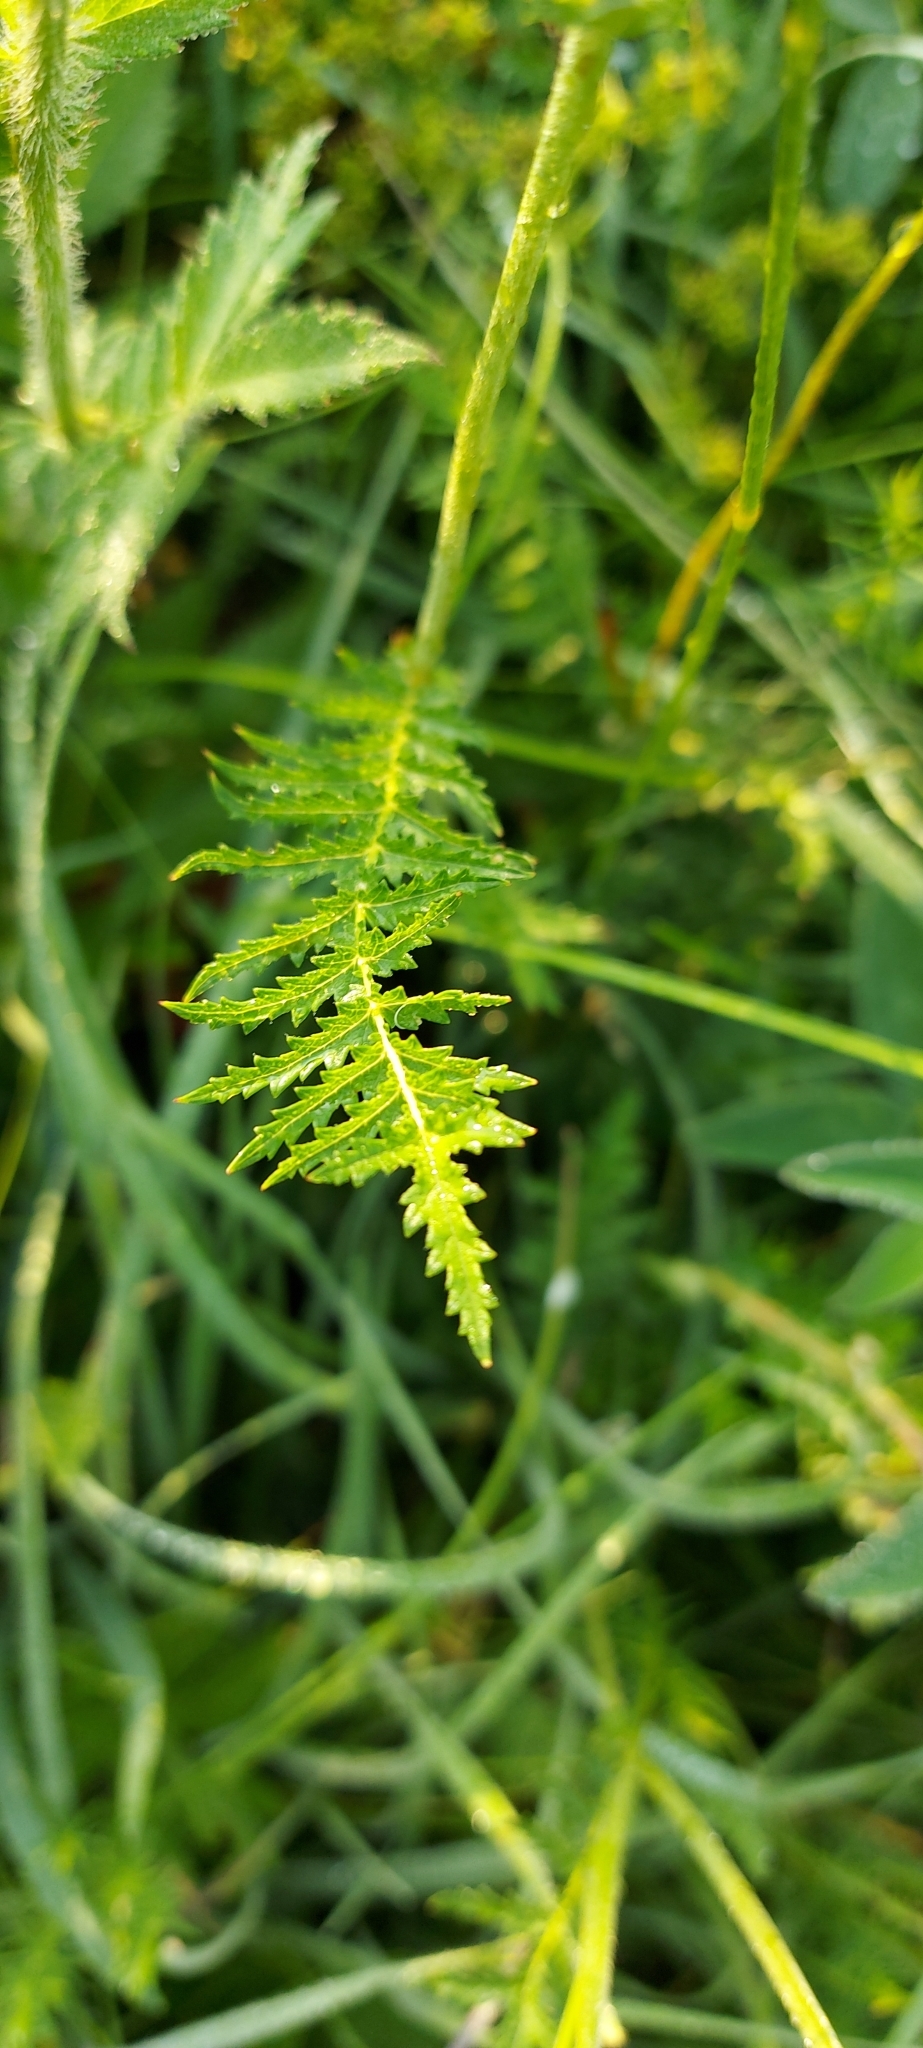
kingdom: Plantae
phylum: Tracheophyta
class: Magnoliopsida
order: Rosales
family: Rosaceae
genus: Filipendula
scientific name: Filipendula vulgaris
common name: Dropwort
